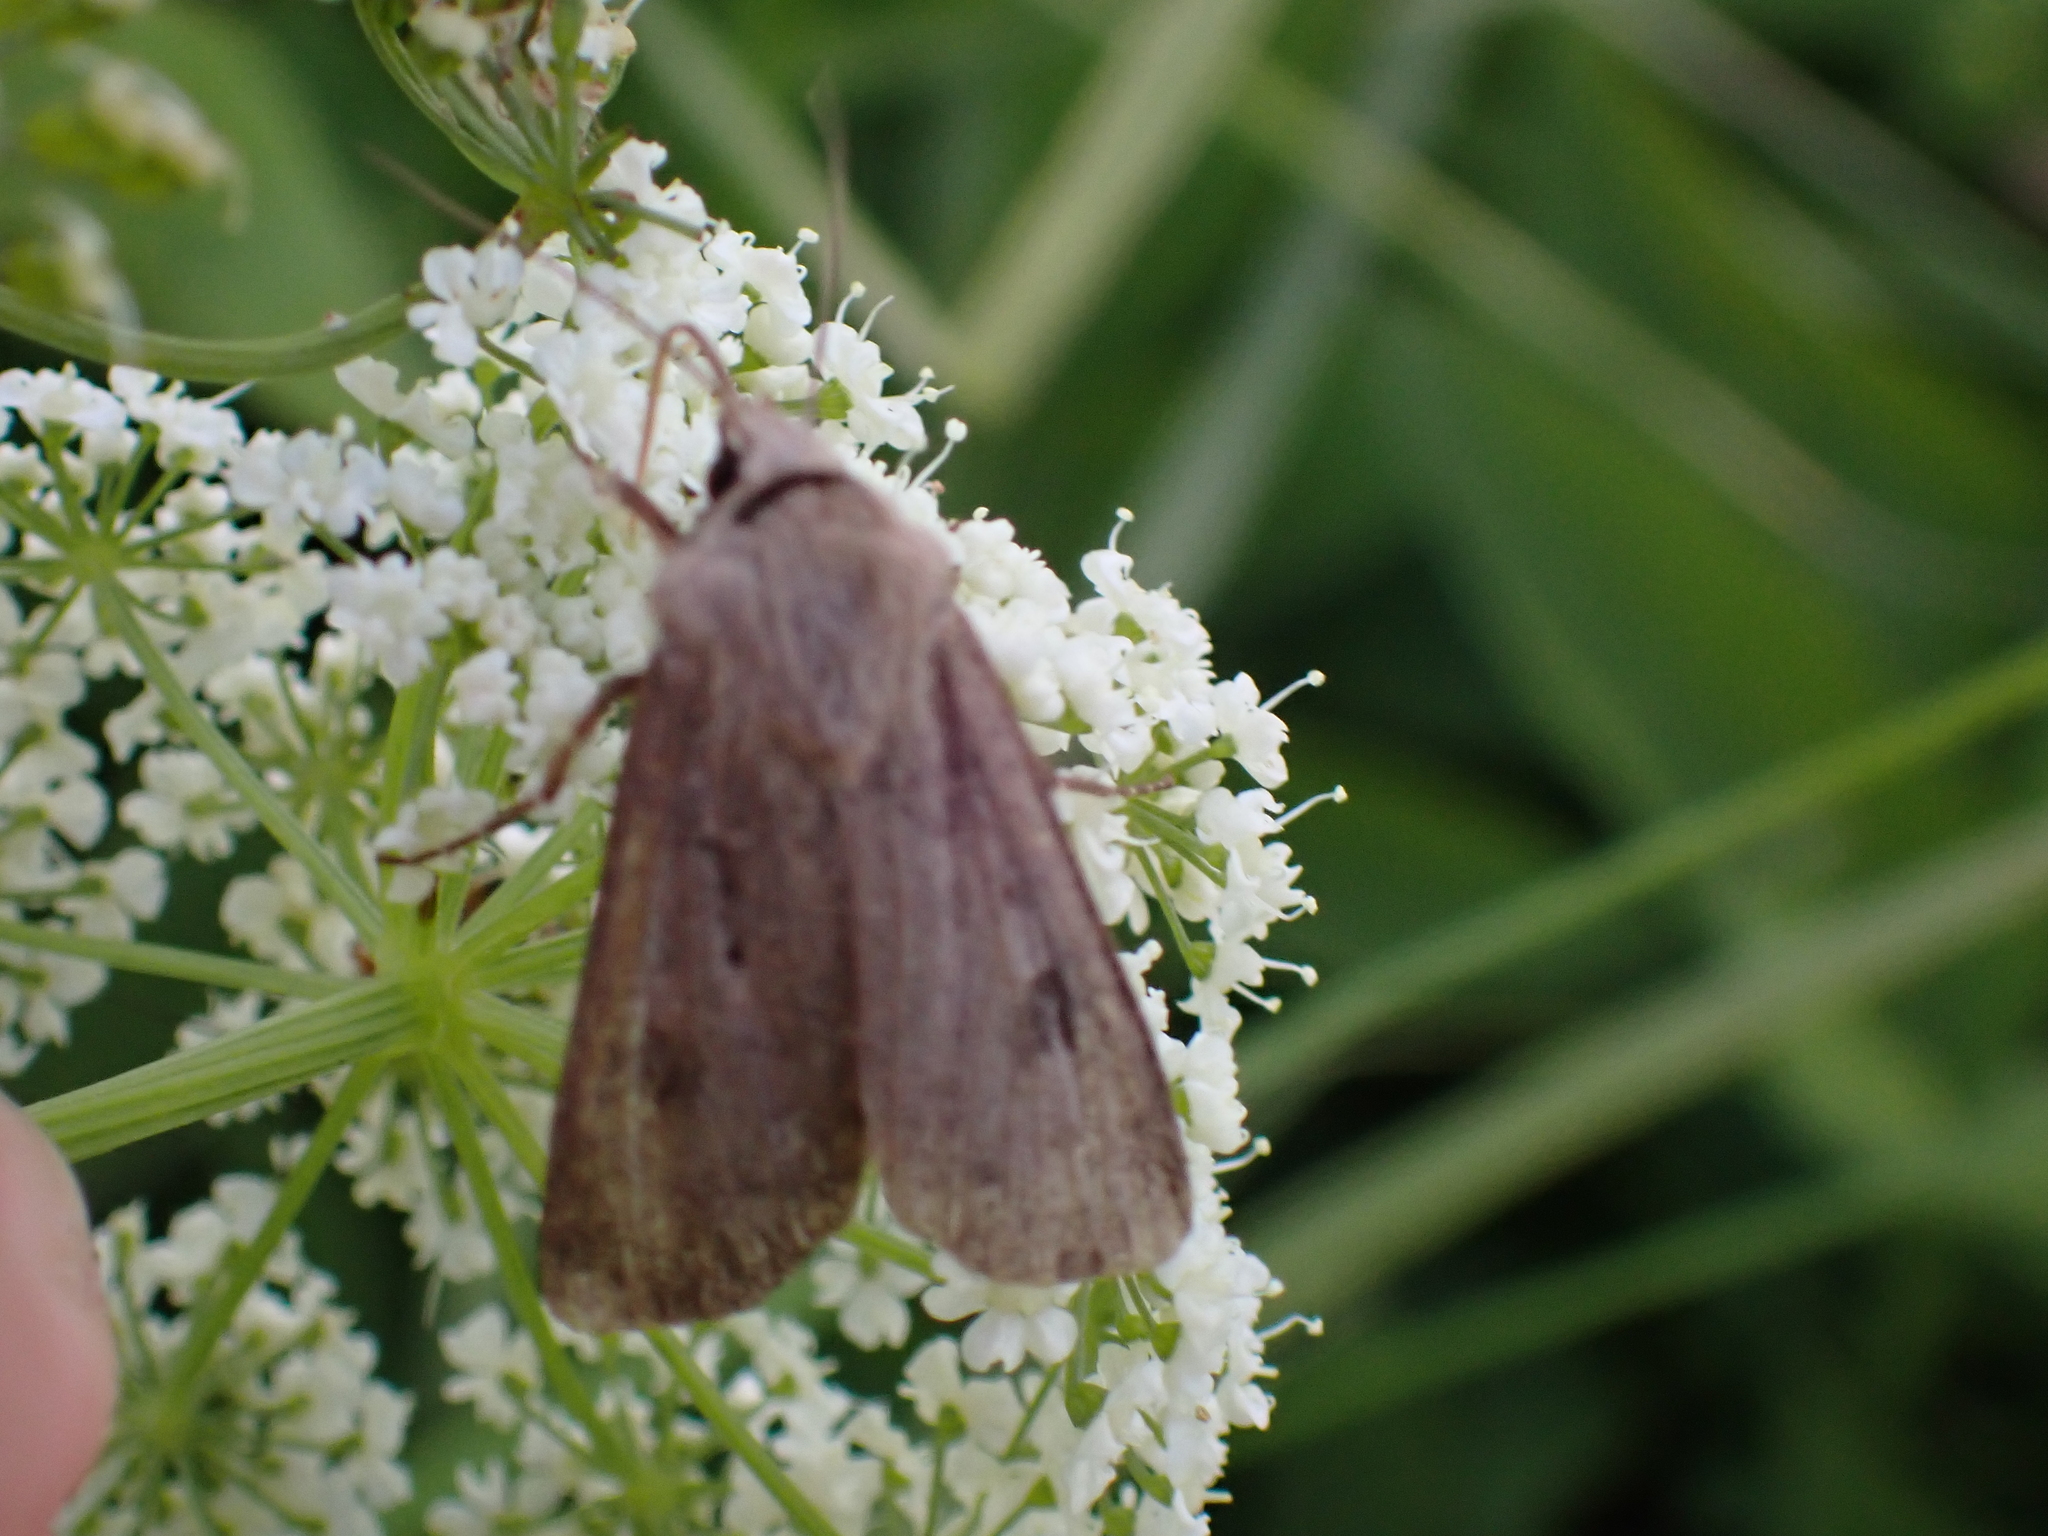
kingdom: Animalia
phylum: Arthropoda
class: Insecta
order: Lepidoptera
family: Noctuidae
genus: Agrotis
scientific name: Agrotis exclamationis
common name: Heart and dart
